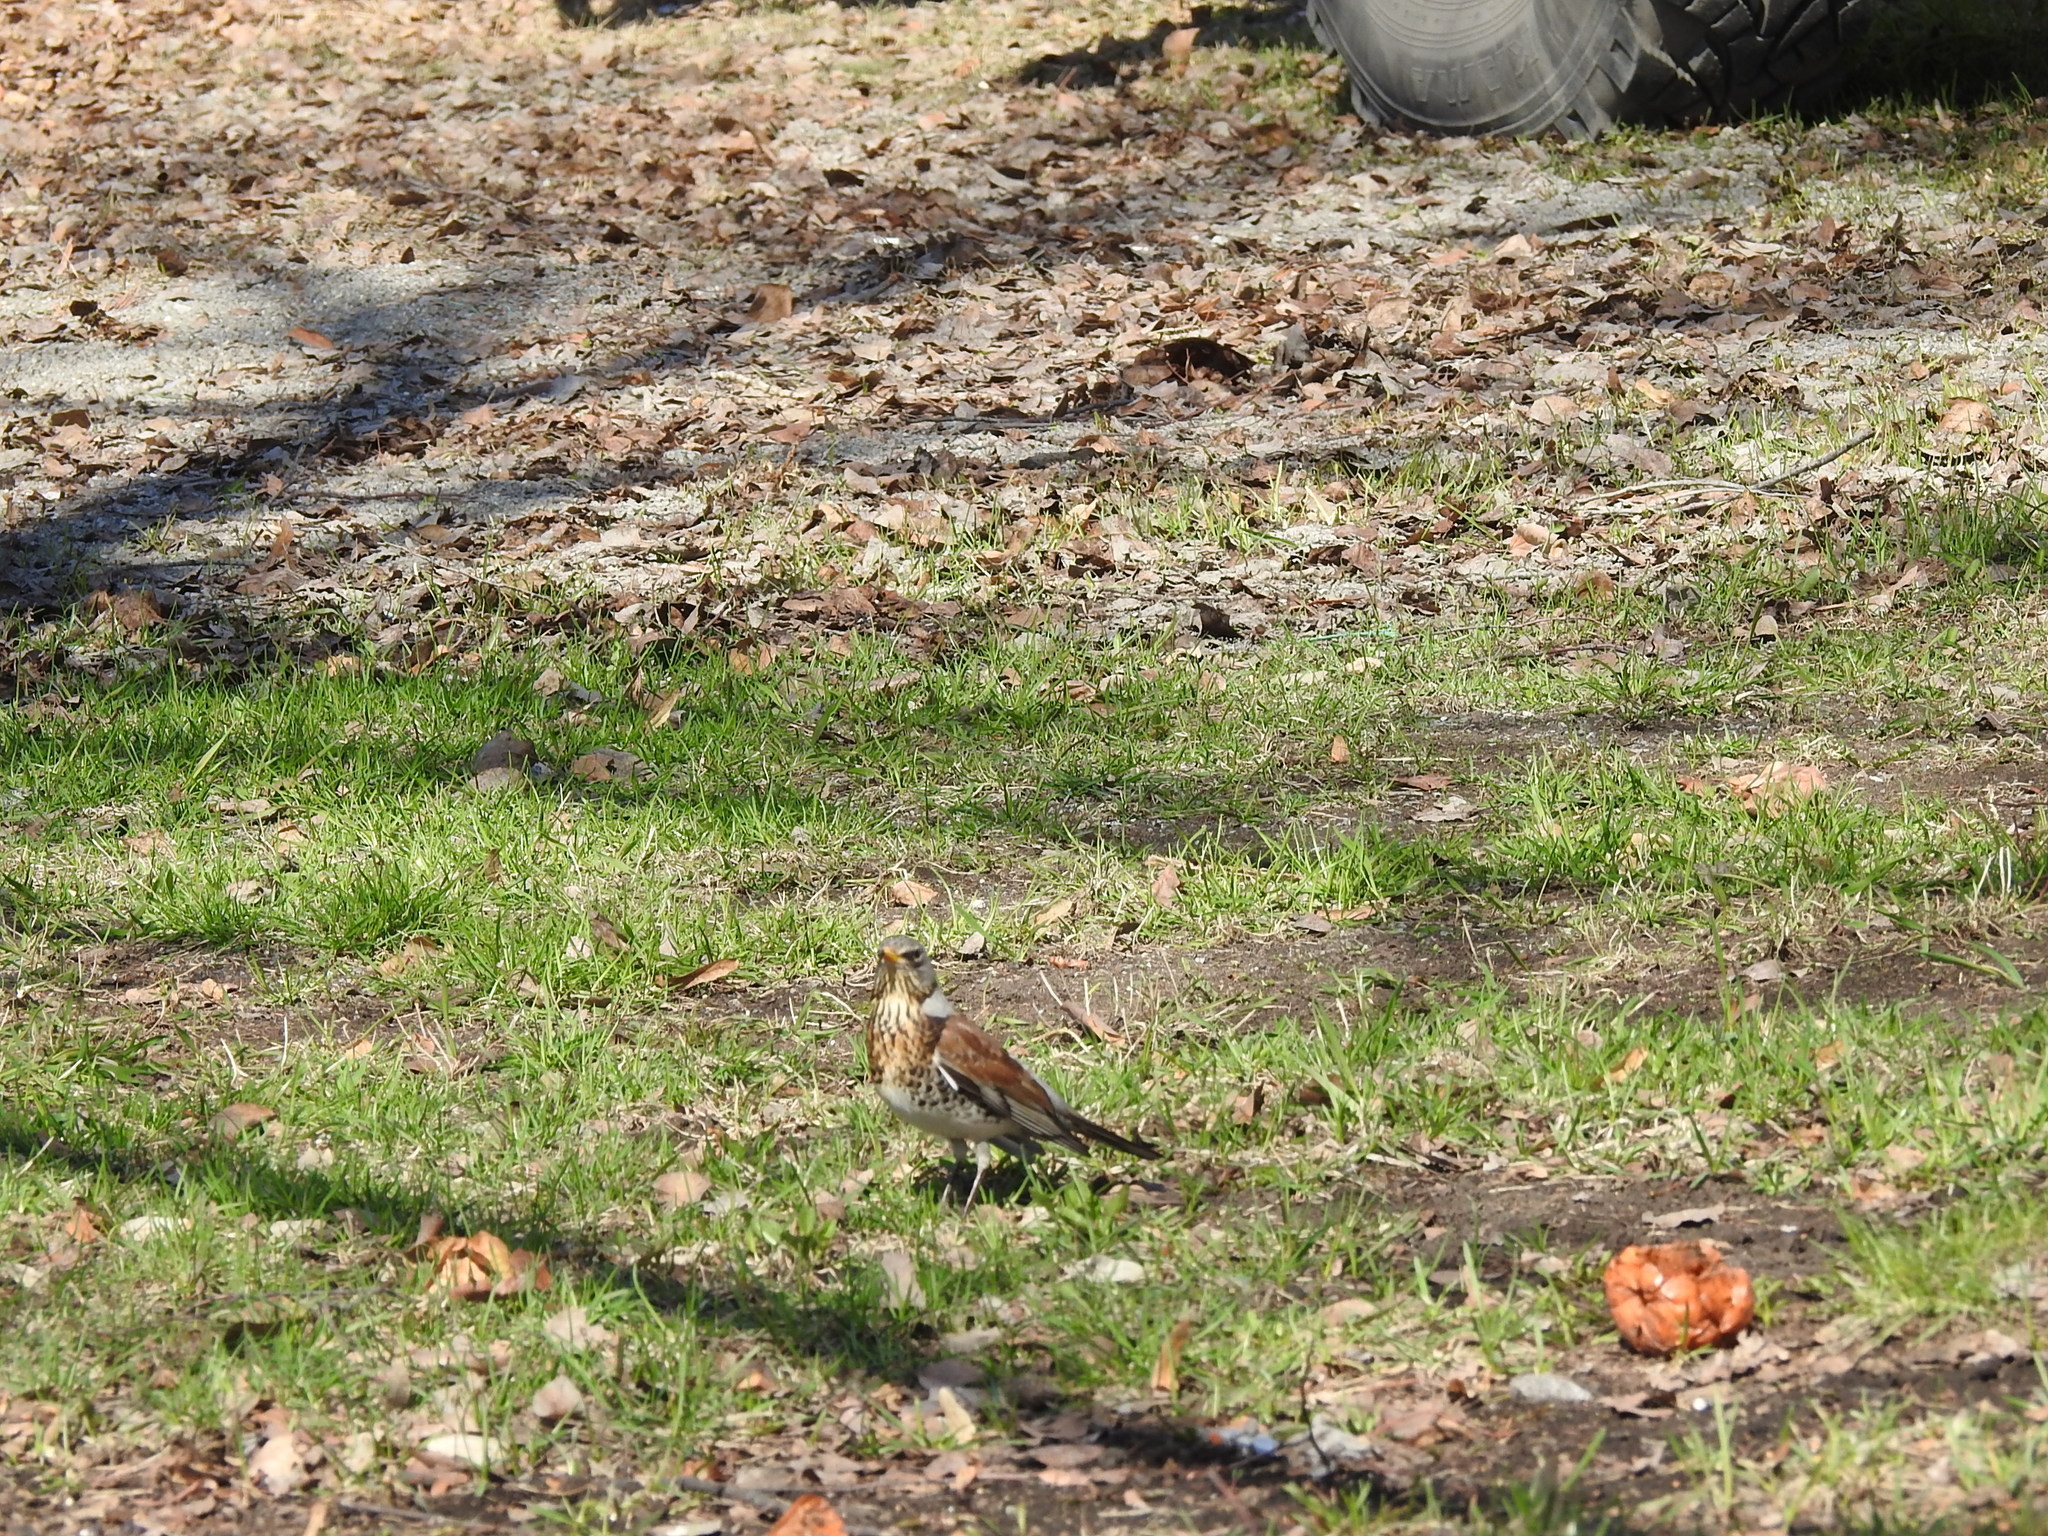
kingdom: Animalia
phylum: Chordata
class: Aves
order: Passeriformes
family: Turdidae
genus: Turdus
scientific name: Turdus pilaris
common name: Fieldfare
